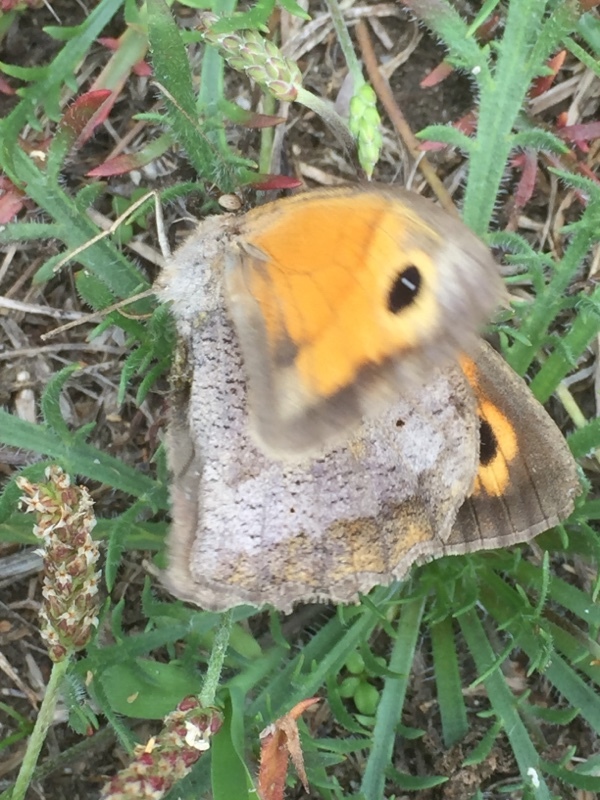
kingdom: Animalia
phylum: Arthropoda
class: Insecta
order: Lepidoptera
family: Nymphalidae
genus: Maniola
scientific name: Maniola jurtina
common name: Meadow brown
